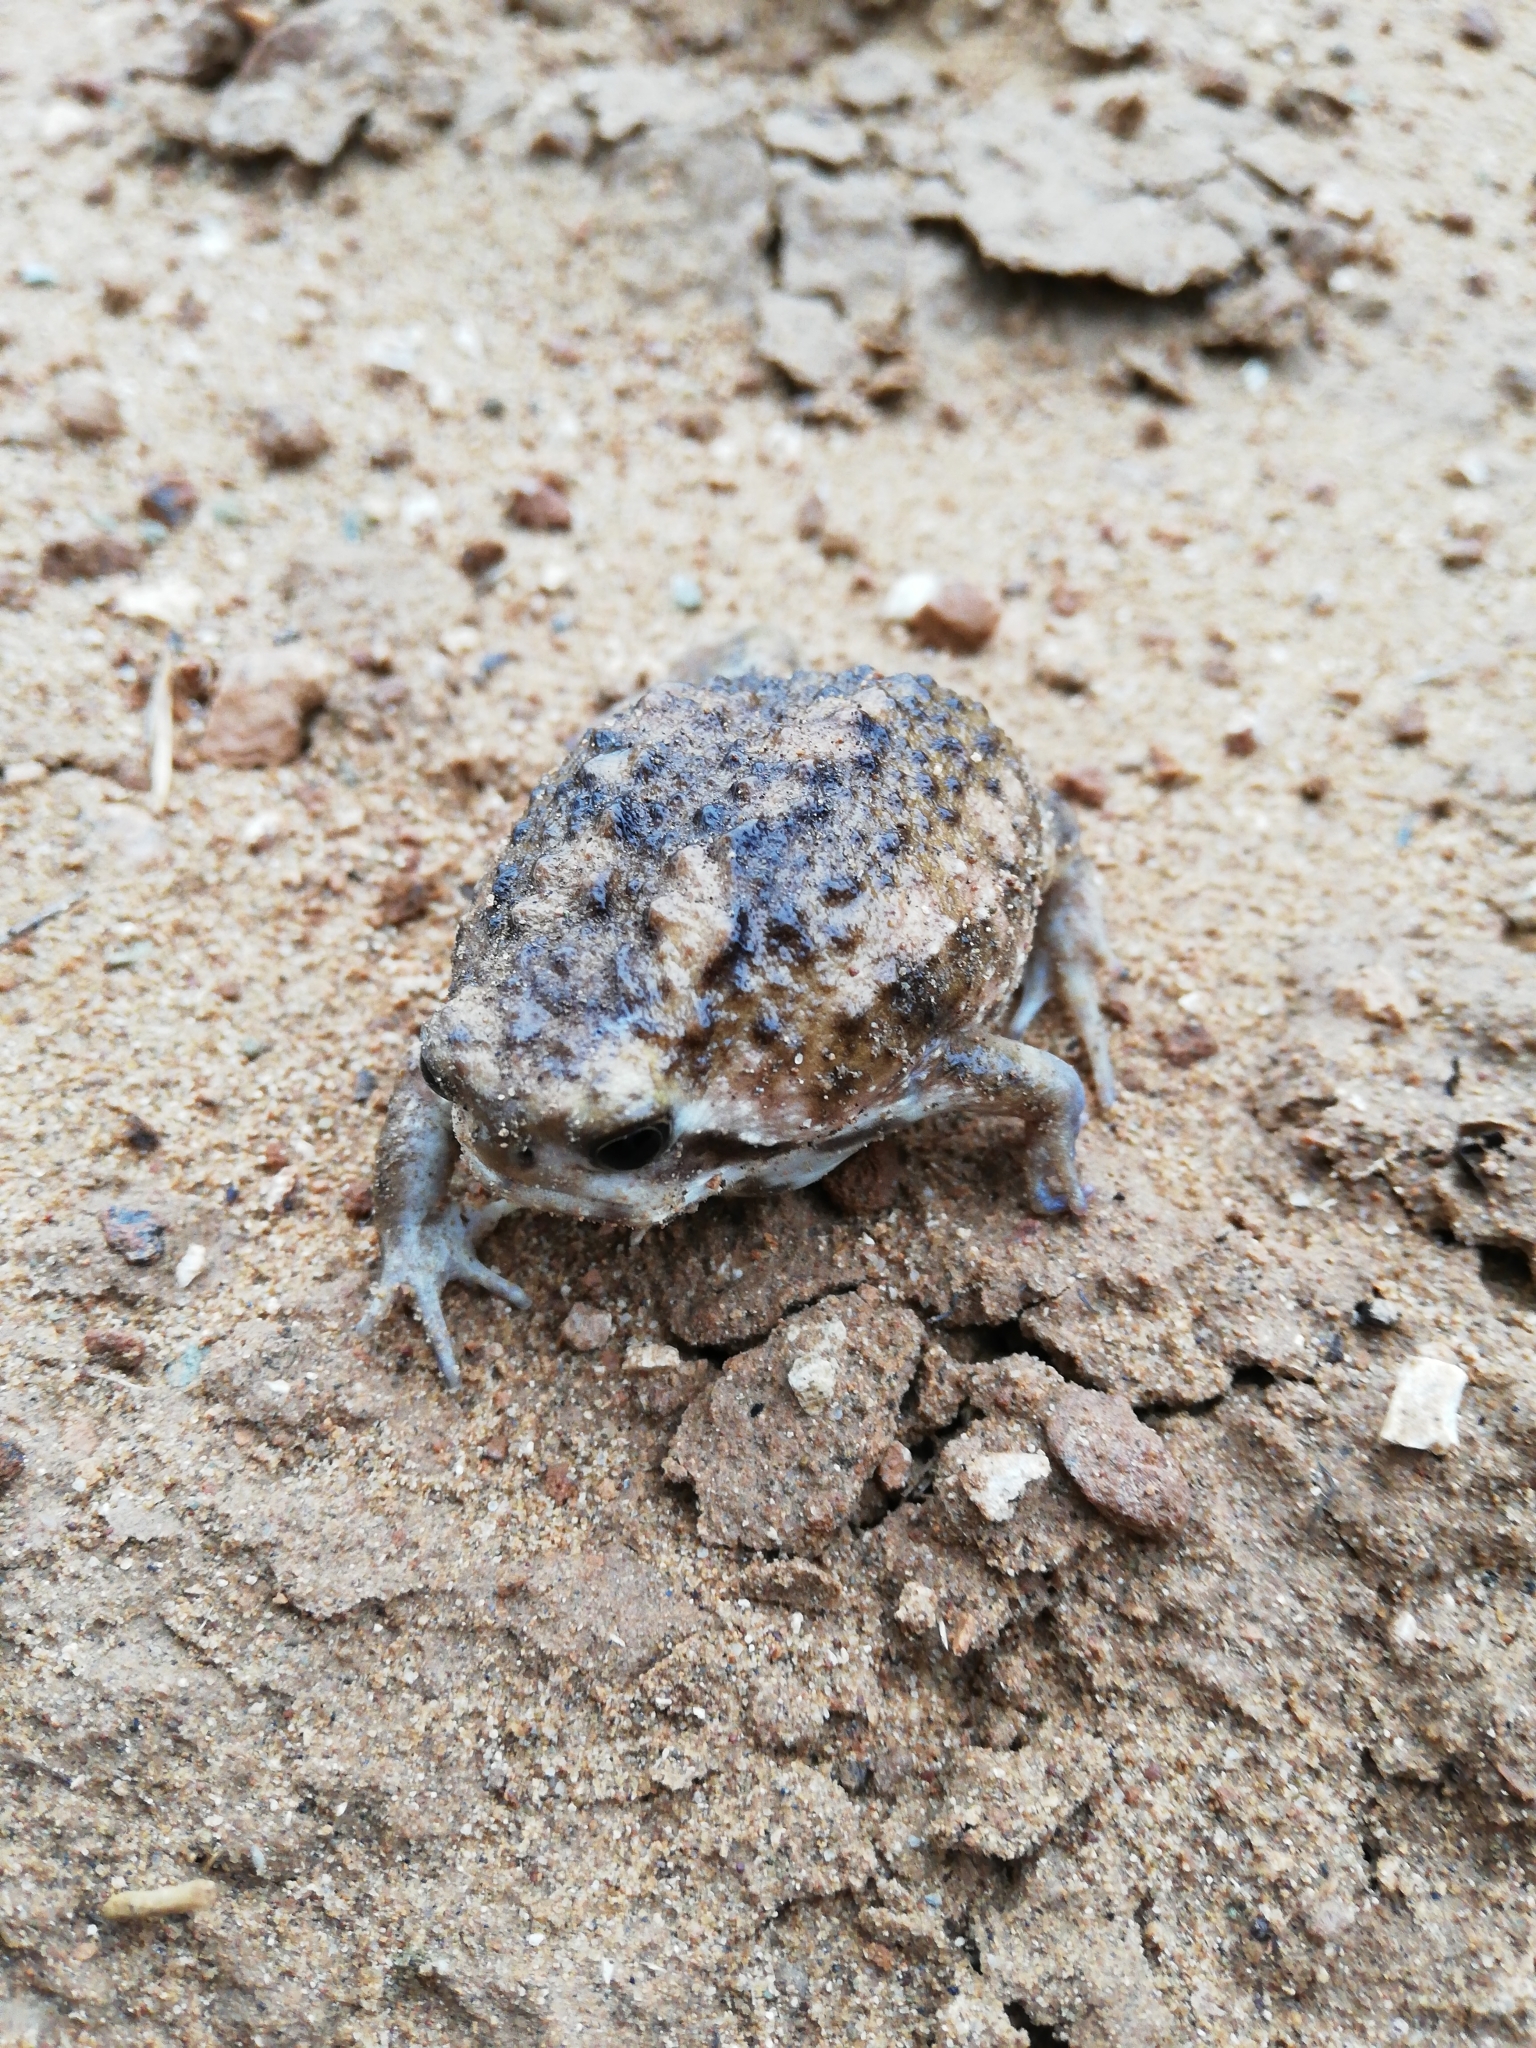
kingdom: Animalia
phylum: Chordata
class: Amphibia
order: Anura
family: Brevicipitidae
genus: Breviceps
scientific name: Breviceps pentheri
